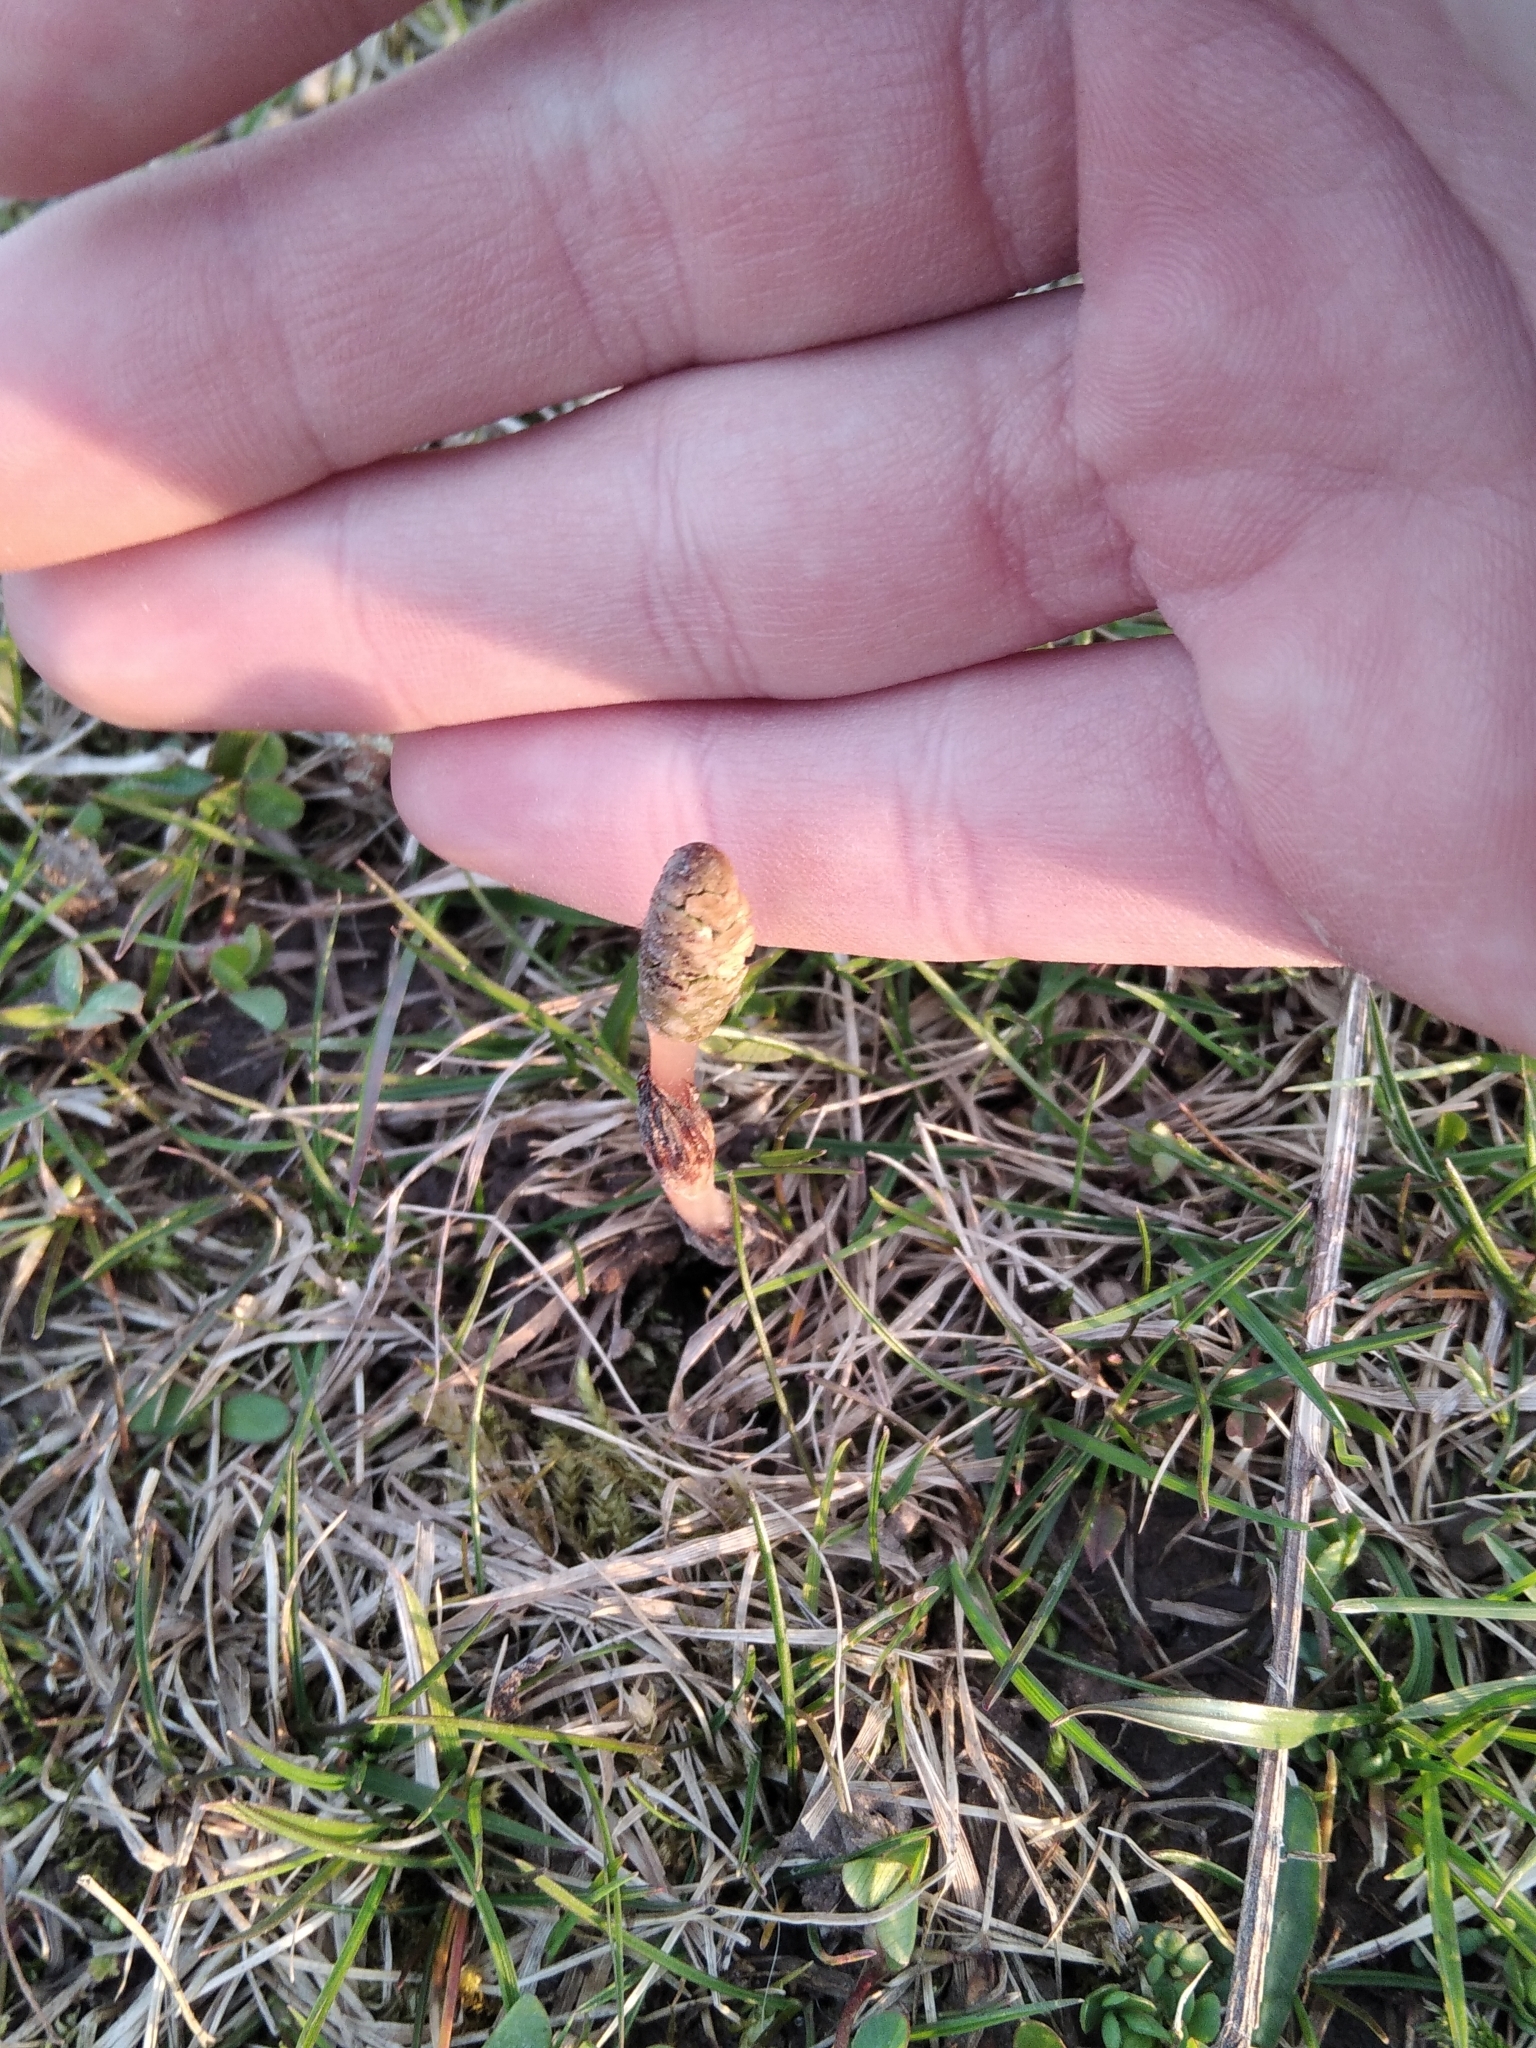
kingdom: Plantae
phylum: Tracheophyta
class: Polypodiopsida
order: Equisetales
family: Equisetaceae
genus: Equisetum
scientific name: Equisetum arvense
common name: Field horsetail
